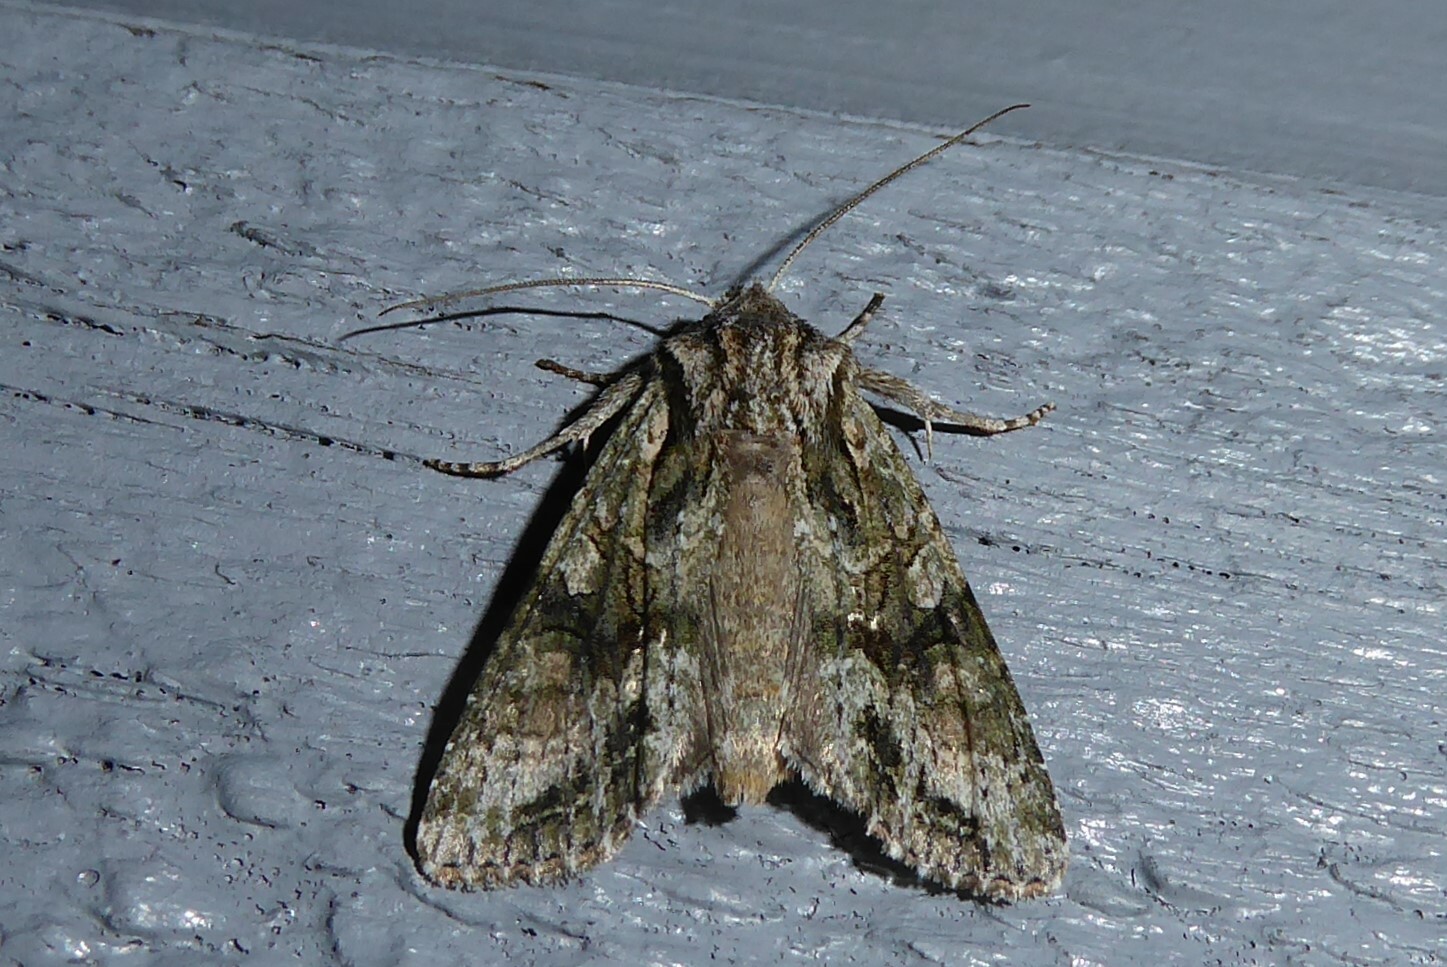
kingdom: Animalia
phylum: Arthropoda
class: Insecta
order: Lepidoptera
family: Noctuidae
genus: Ichneutica
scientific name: Ichneutica mutans
